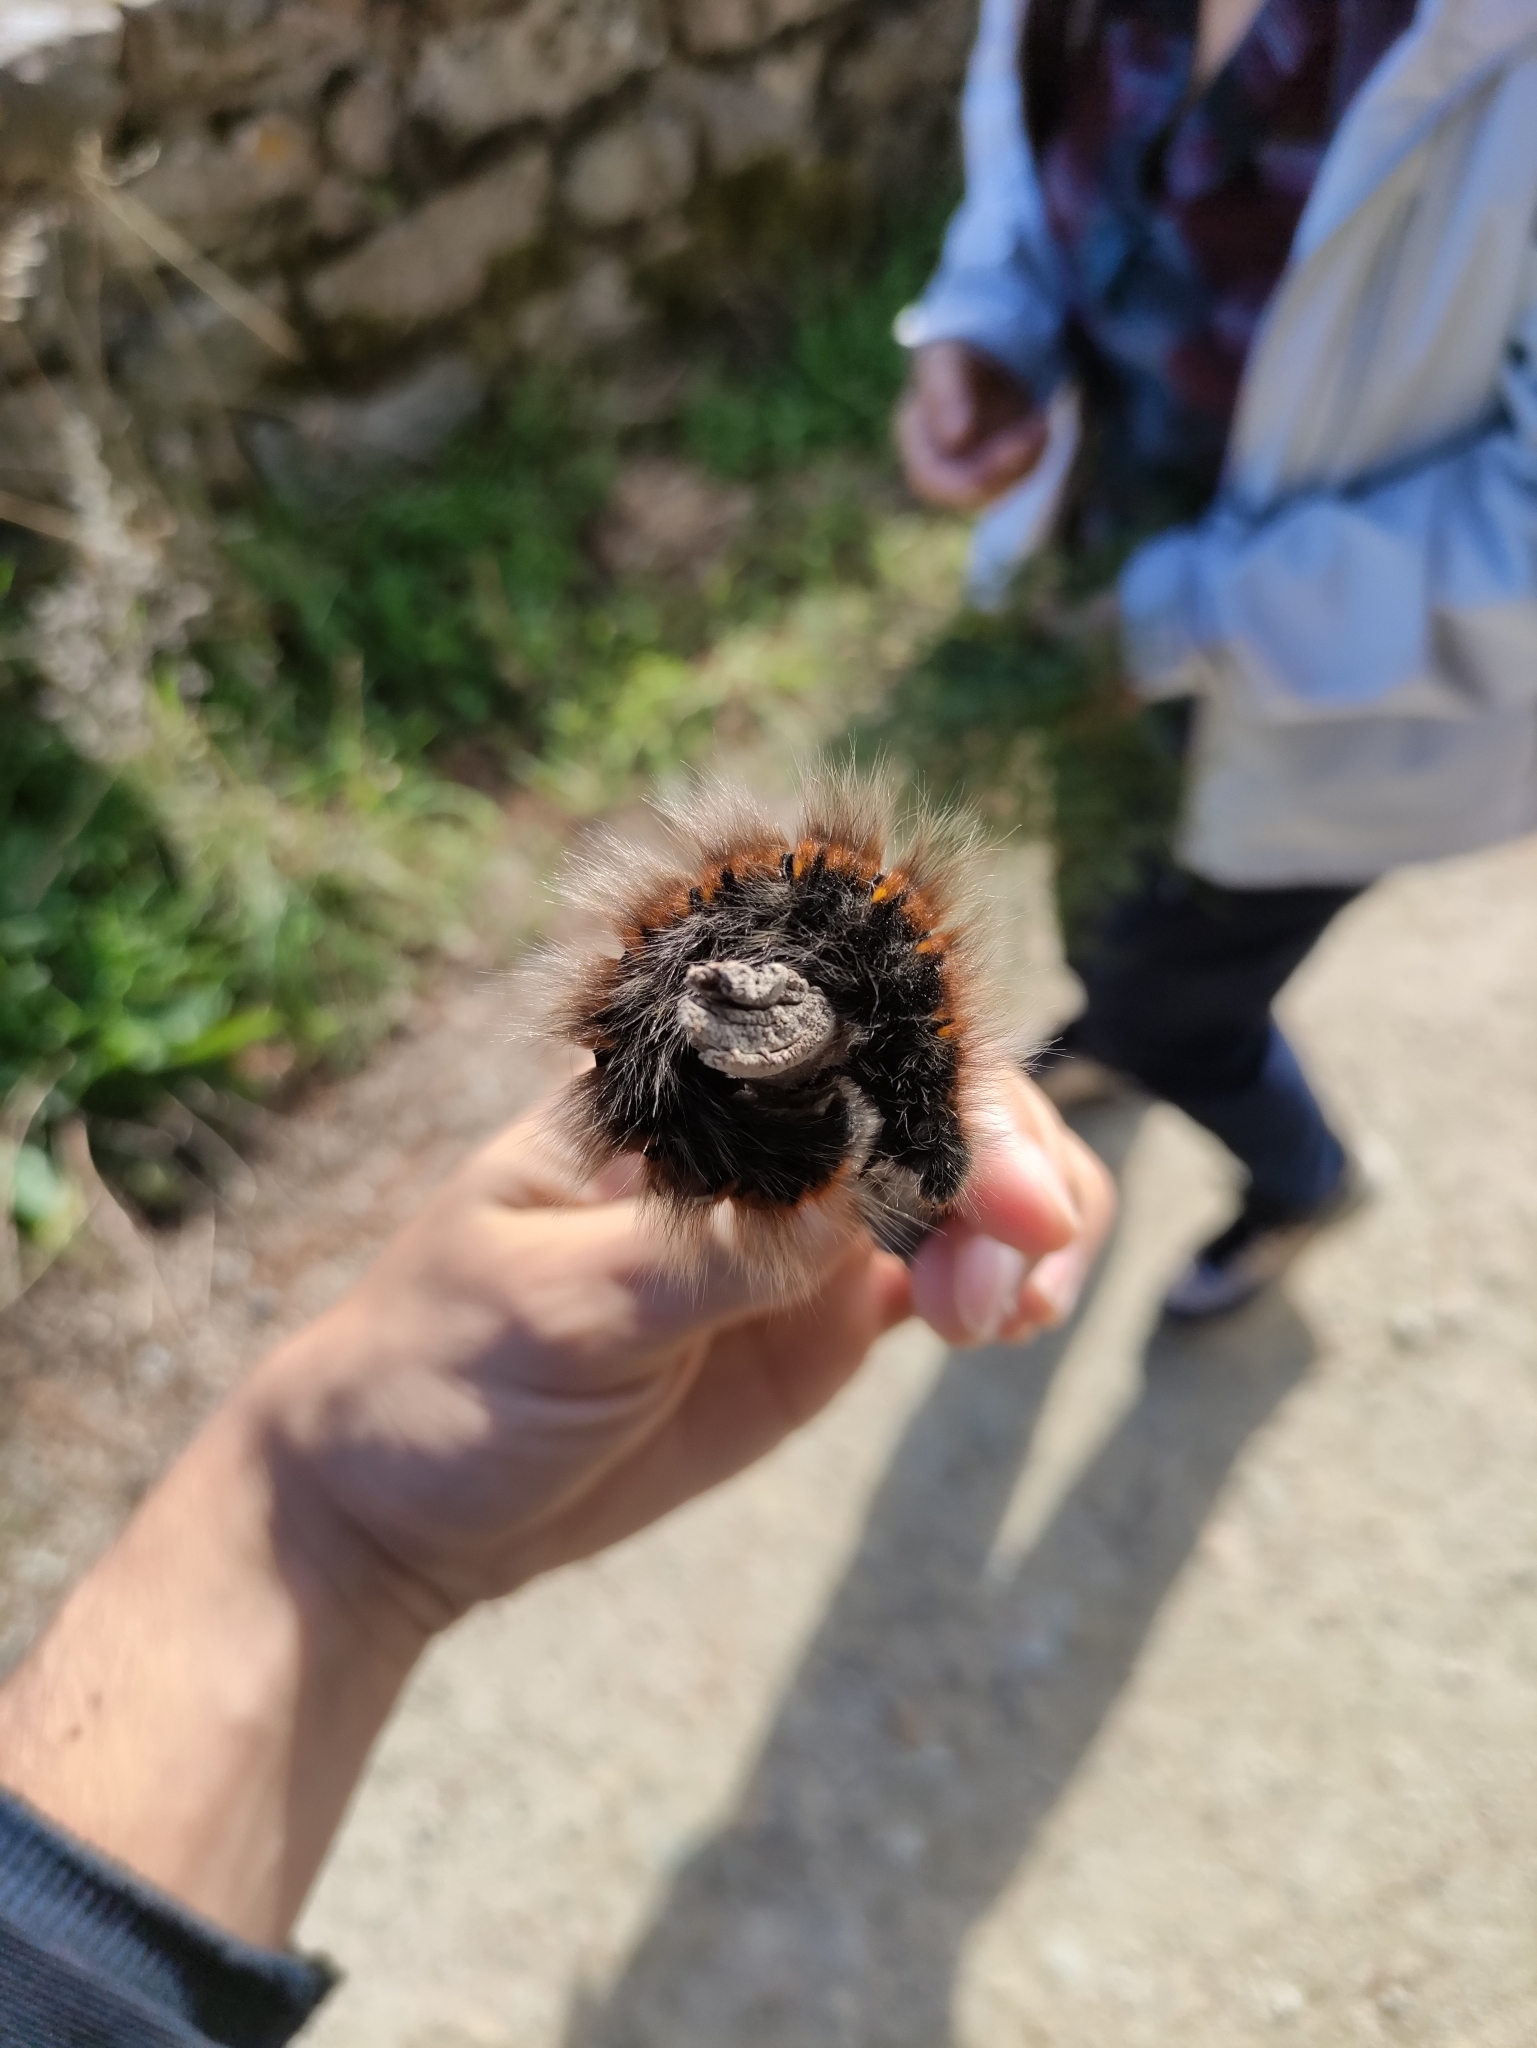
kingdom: Animalia
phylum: Arthropoda
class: Insecta
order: Lepidoptera
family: Lasiocampidae
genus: Macrothylacia
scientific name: Macrothylacia rubi
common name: Fox moth
